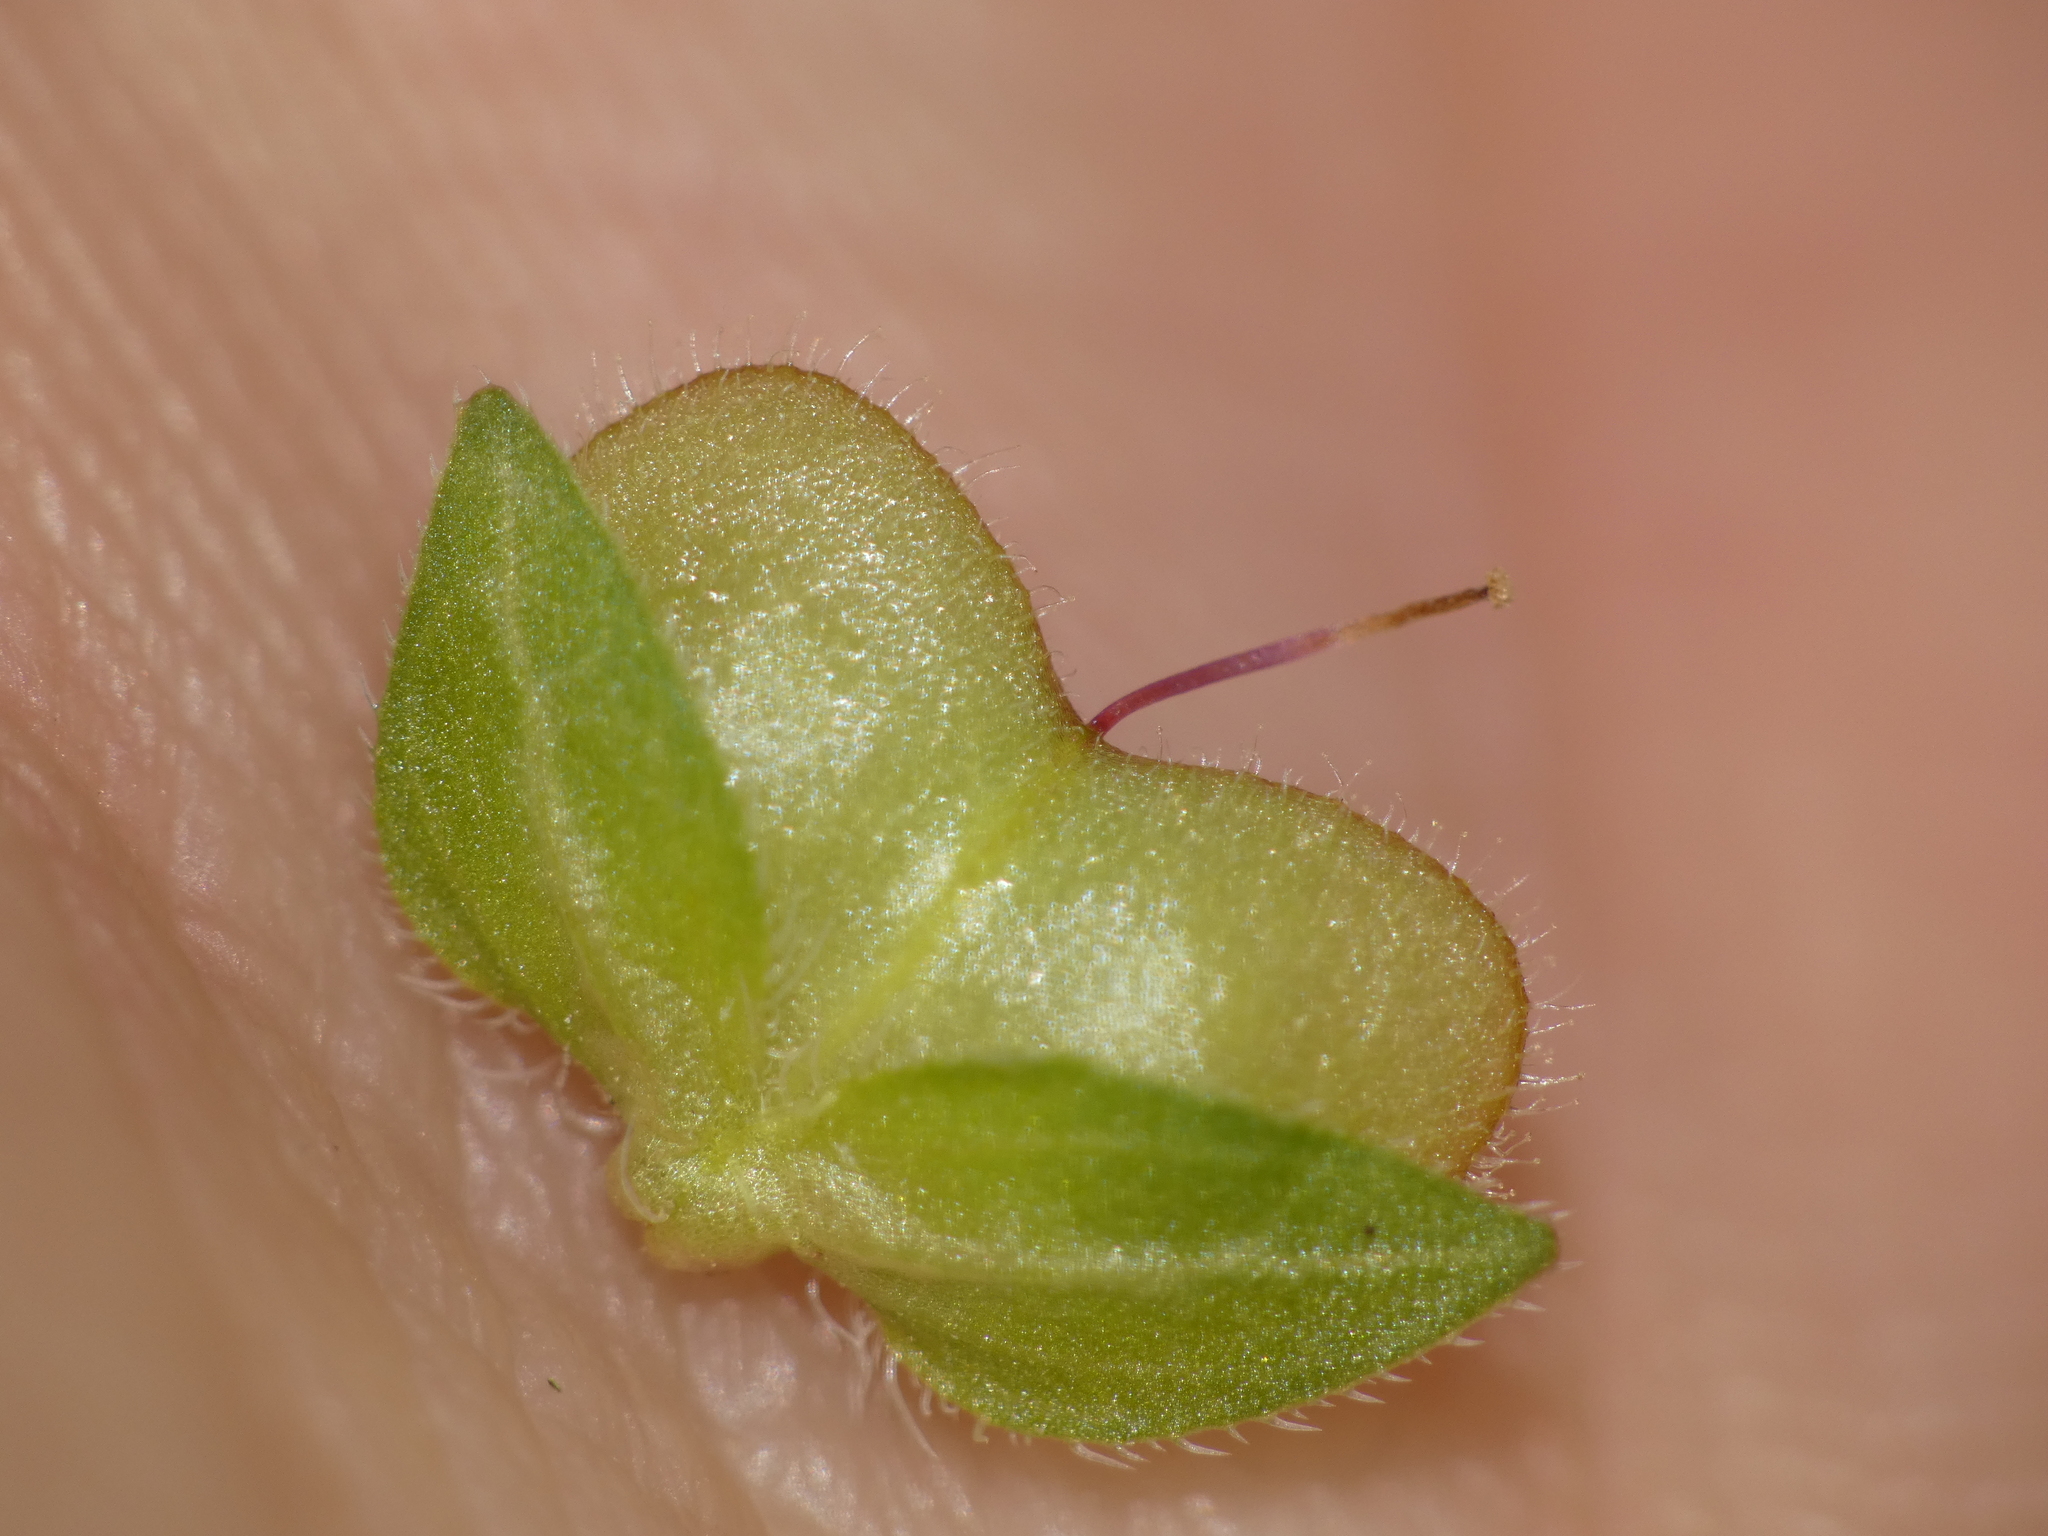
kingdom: Plantae
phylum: Tracheophyta
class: Magnoliopsida
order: Lamiales
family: Plantaginaceae
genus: Veronica
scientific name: Veronica persica
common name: Common field-speedwell
